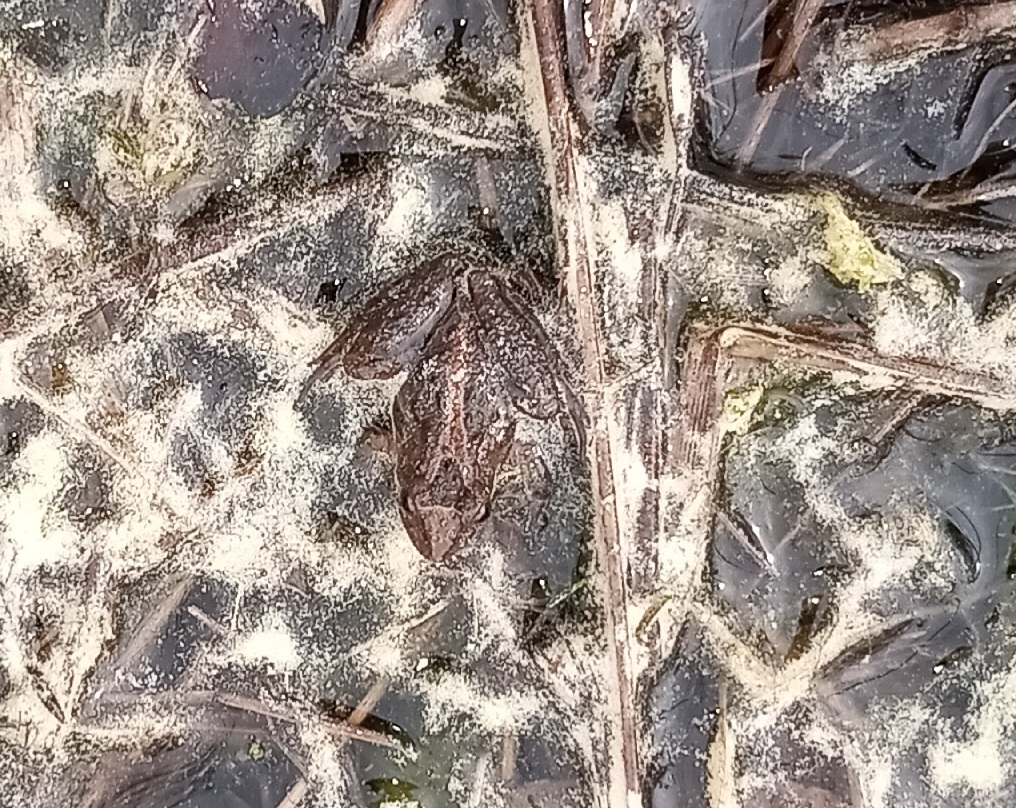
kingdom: Animalia
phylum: Chordata
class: Amphibia
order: Anura
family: Hylidae
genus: Acris
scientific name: Acris gryllus
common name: Southern cricket frog
